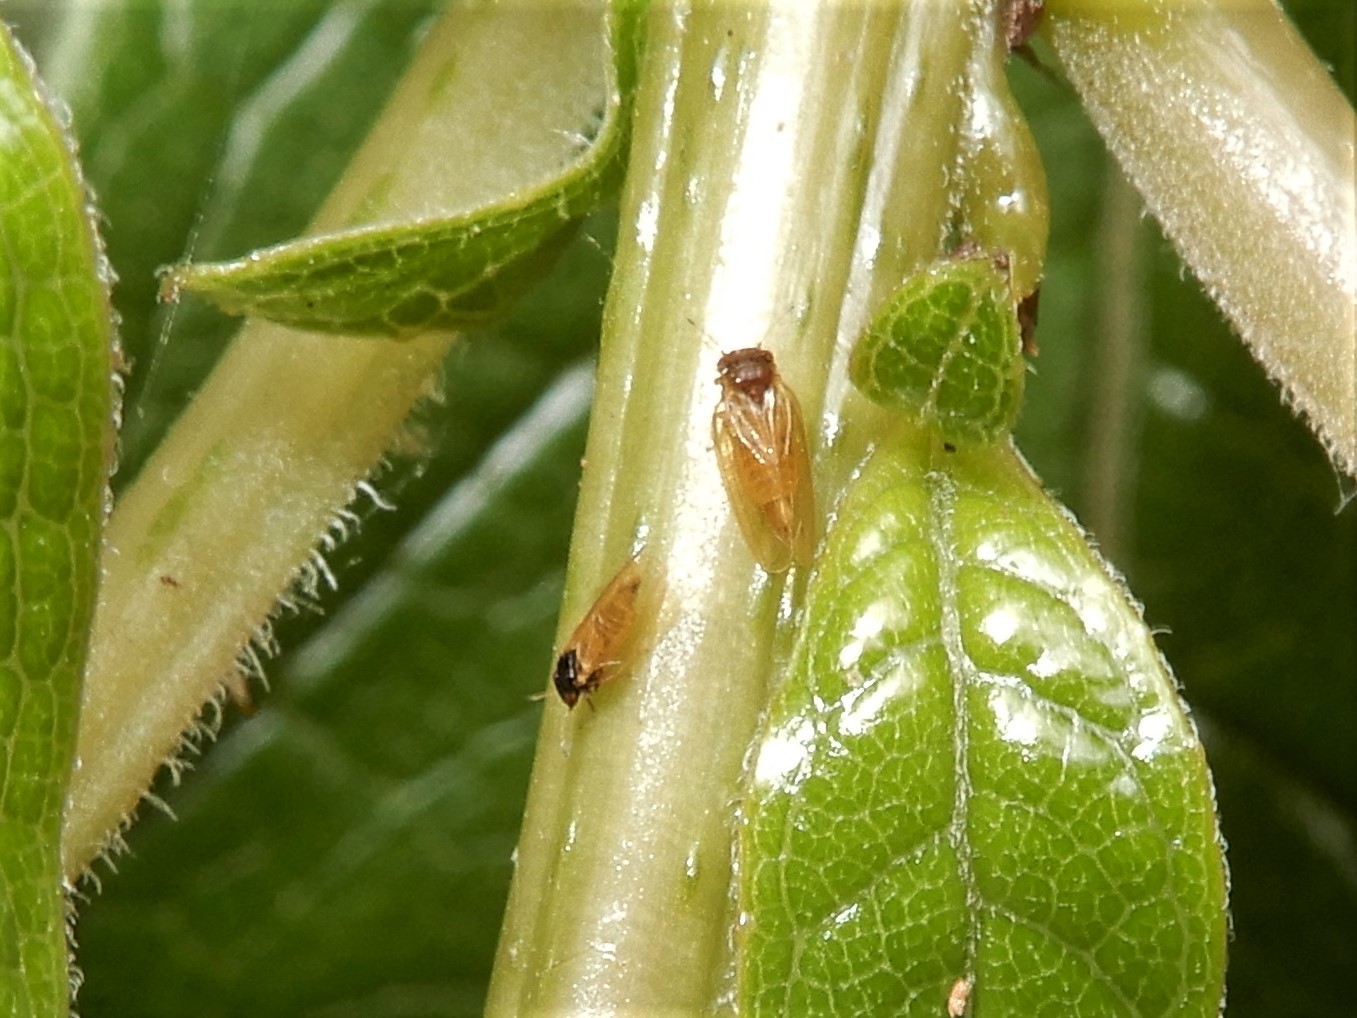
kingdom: Animalia
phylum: Arthropoda
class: Insecta
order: Hemiptera
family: Aphalaridae
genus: Ctenarytaina
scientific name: Ctenarytaina fuchsiae
